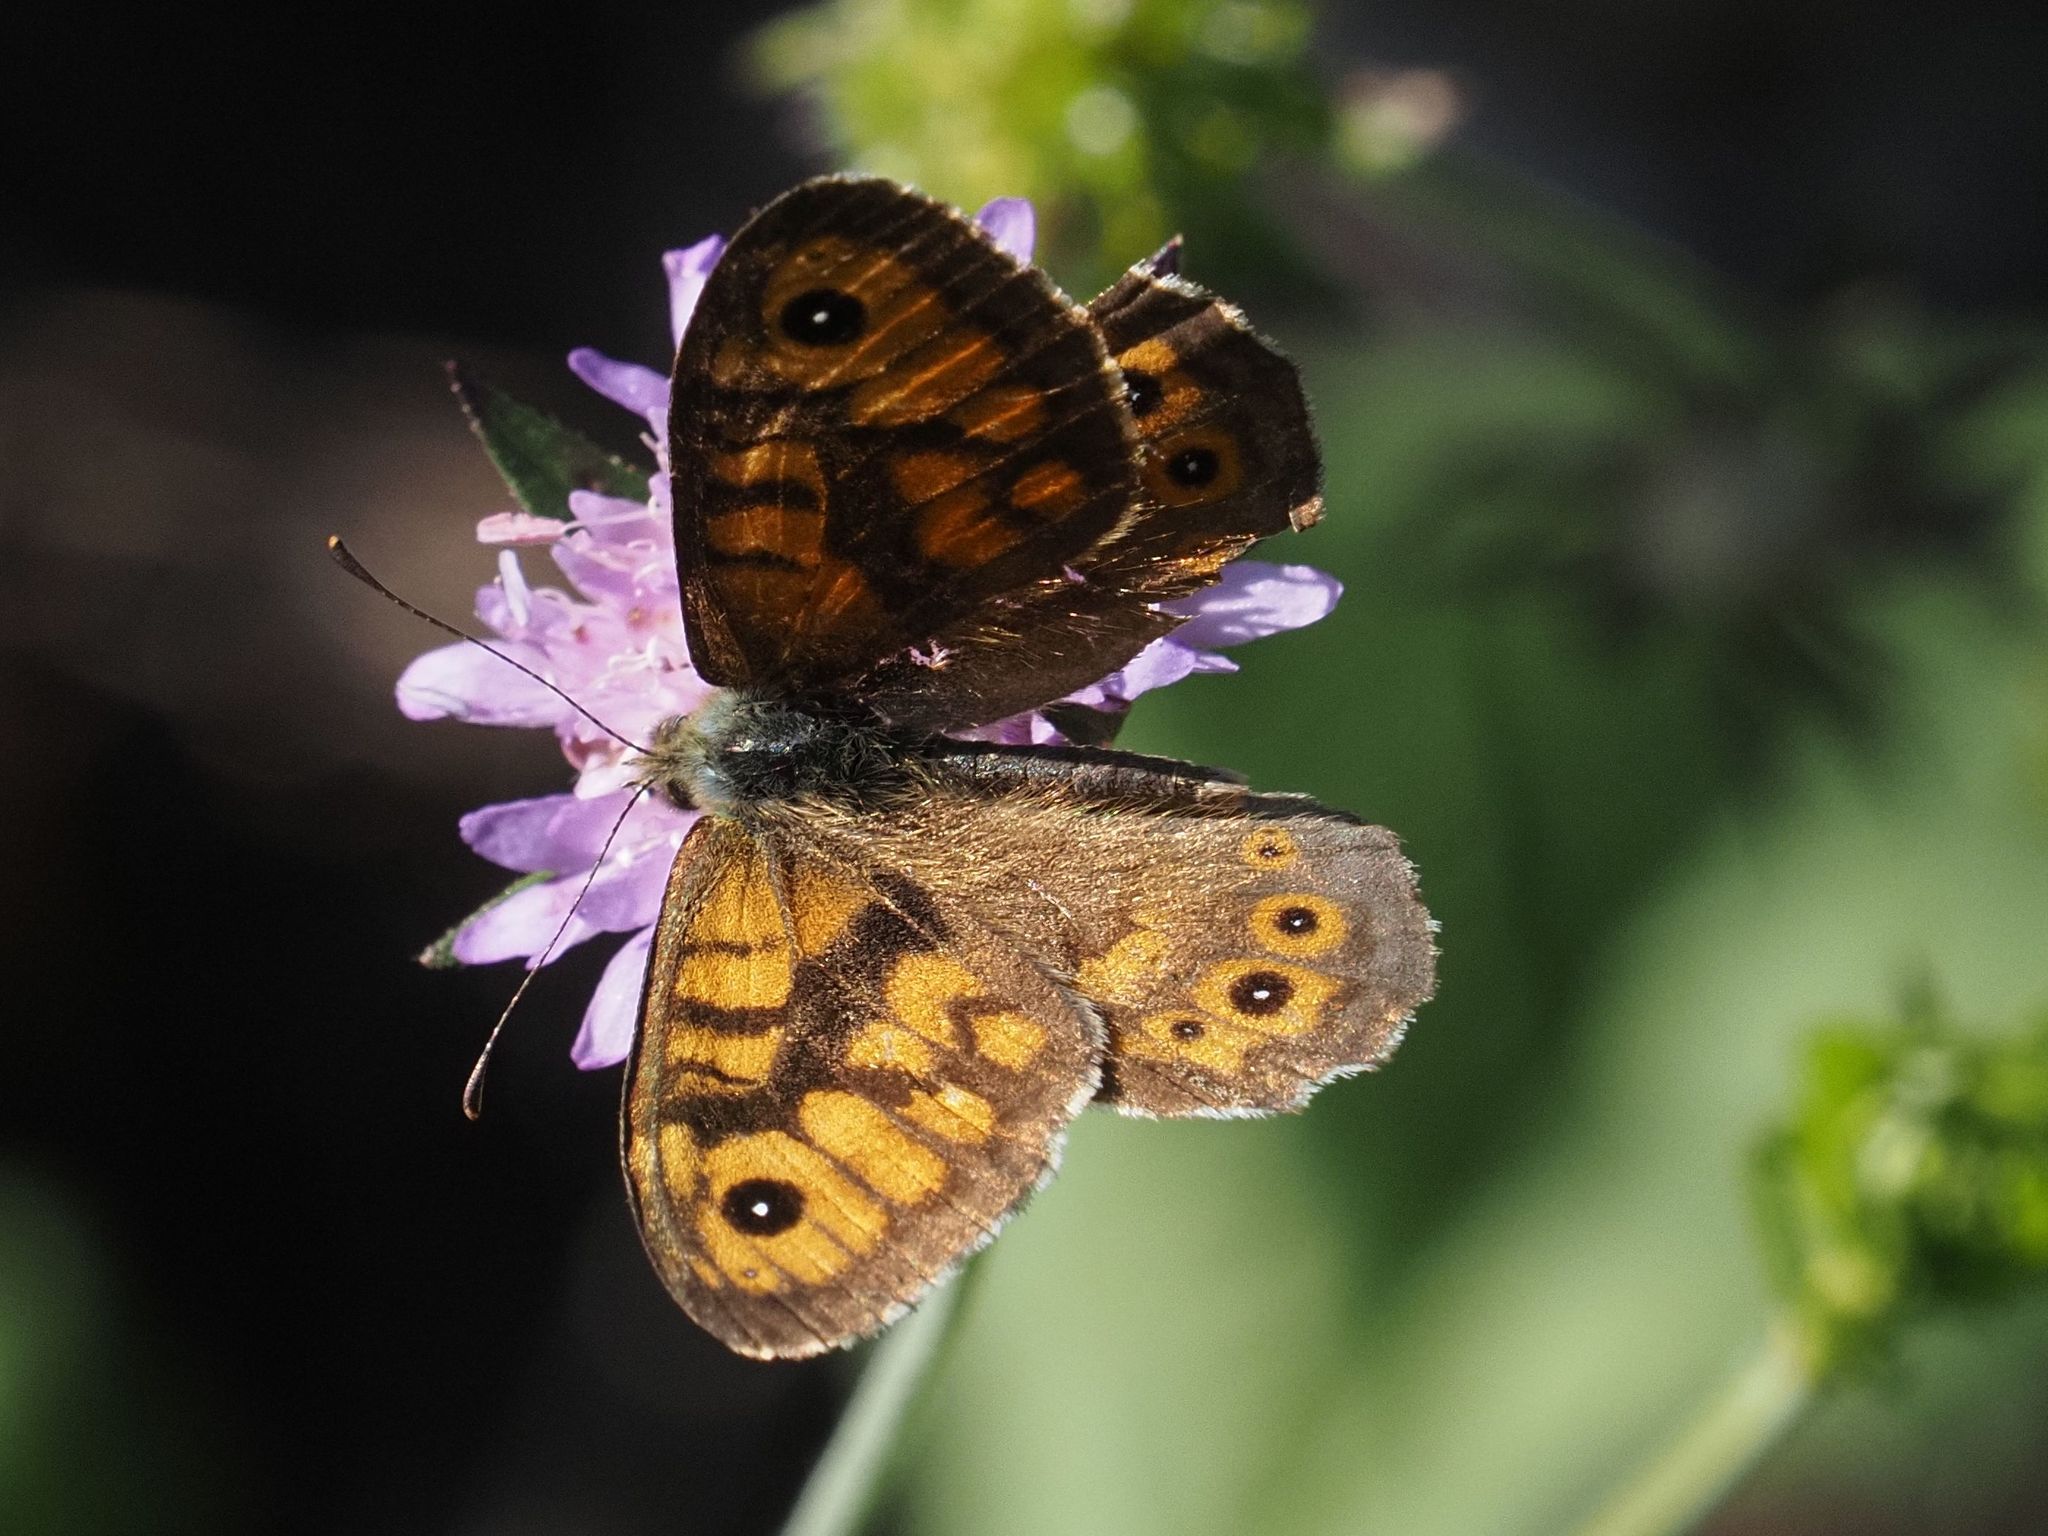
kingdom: Animalia
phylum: Arthropoda
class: Insecta
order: Lepidoptera
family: Nymphalidae
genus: Pararge
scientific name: Pararge Lasiommata megera
